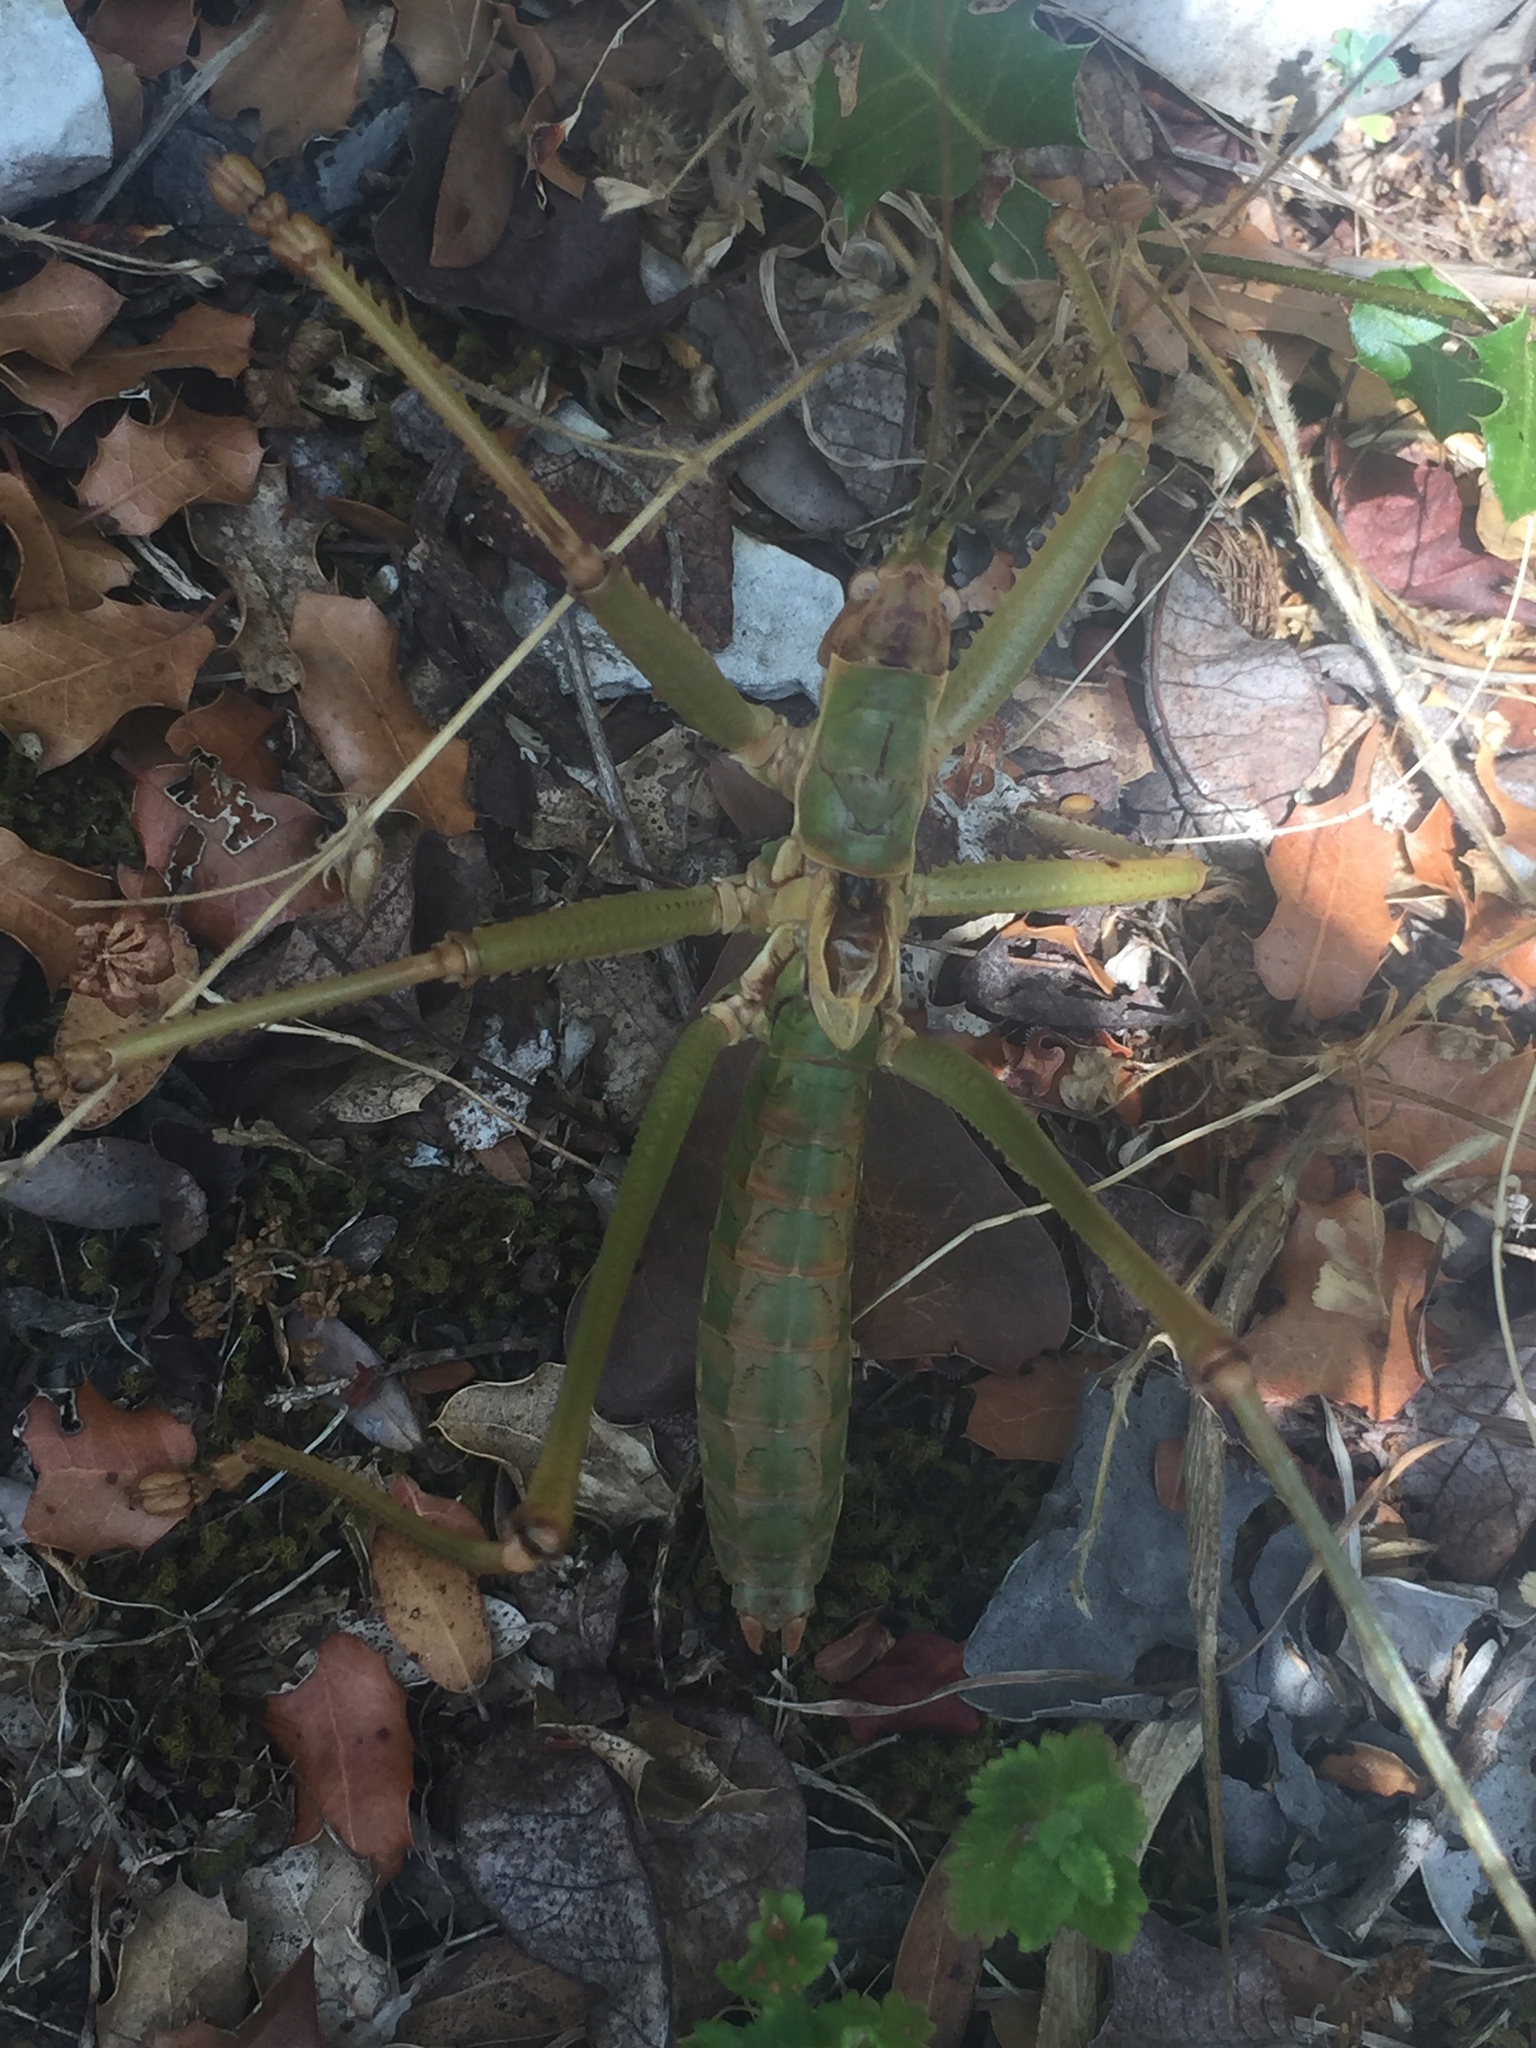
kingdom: Animalia
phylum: Arthropoda
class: Insecta
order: Orthoptera
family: Tettigoniidae
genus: Saga
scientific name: Saga hellenica
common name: Greek predatory bush-cricket
